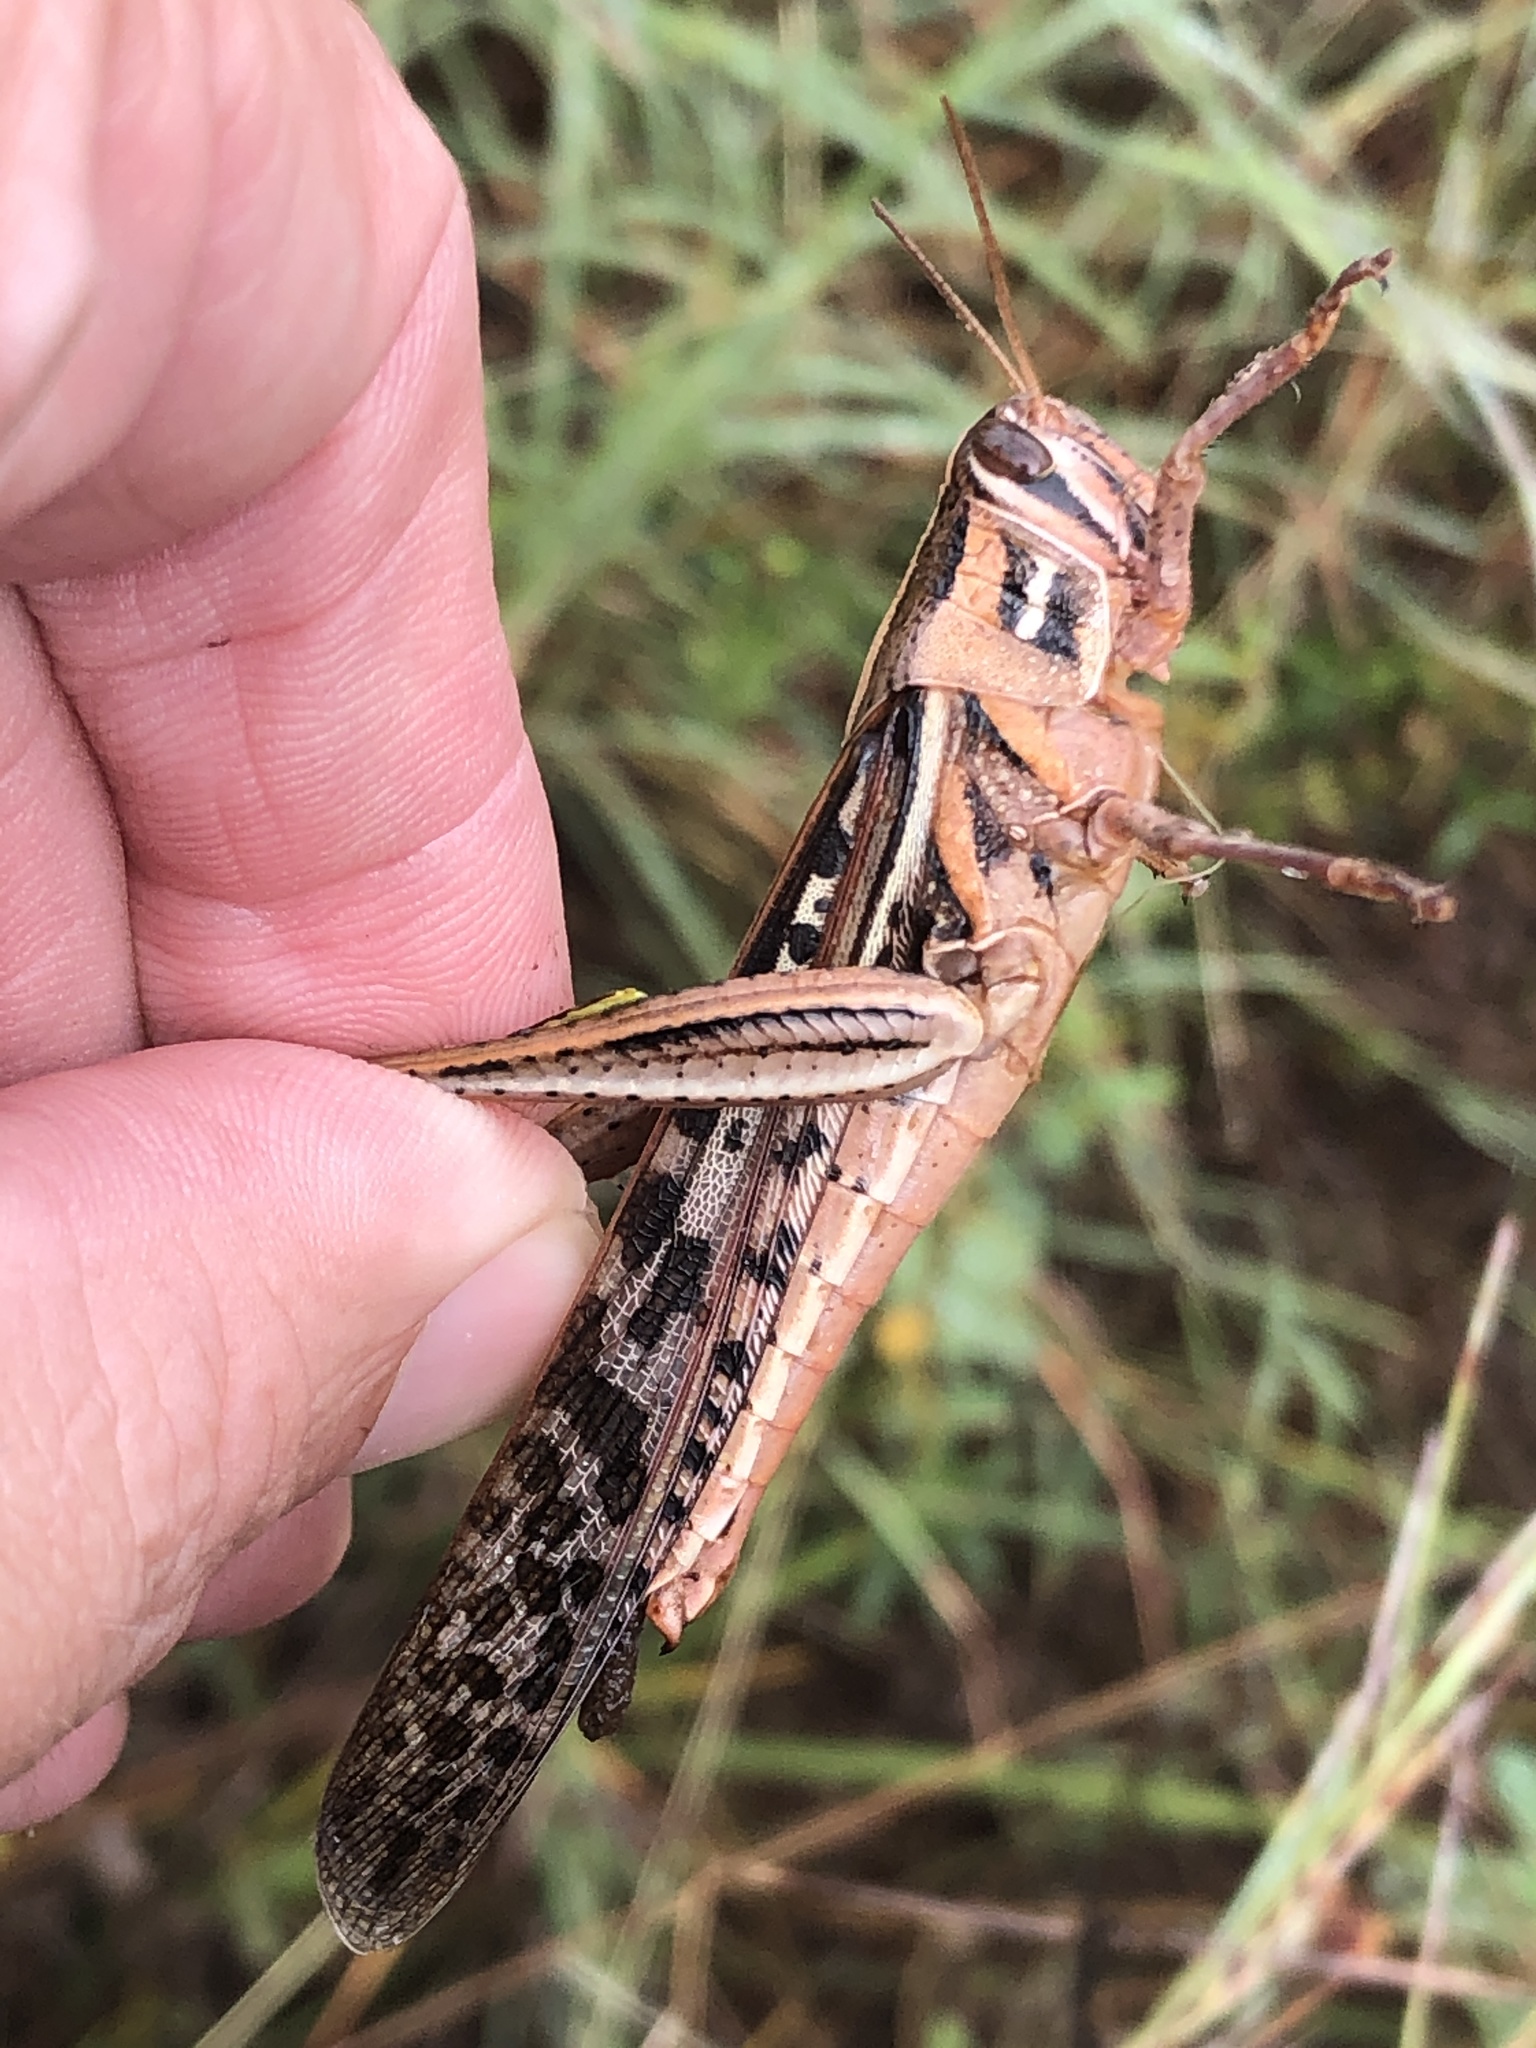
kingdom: Animalia
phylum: Arthropoda
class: Insecta
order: Orthoptera
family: Acrididae
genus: Schistocerca
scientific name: Schistocerca americana
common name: American bird locust
